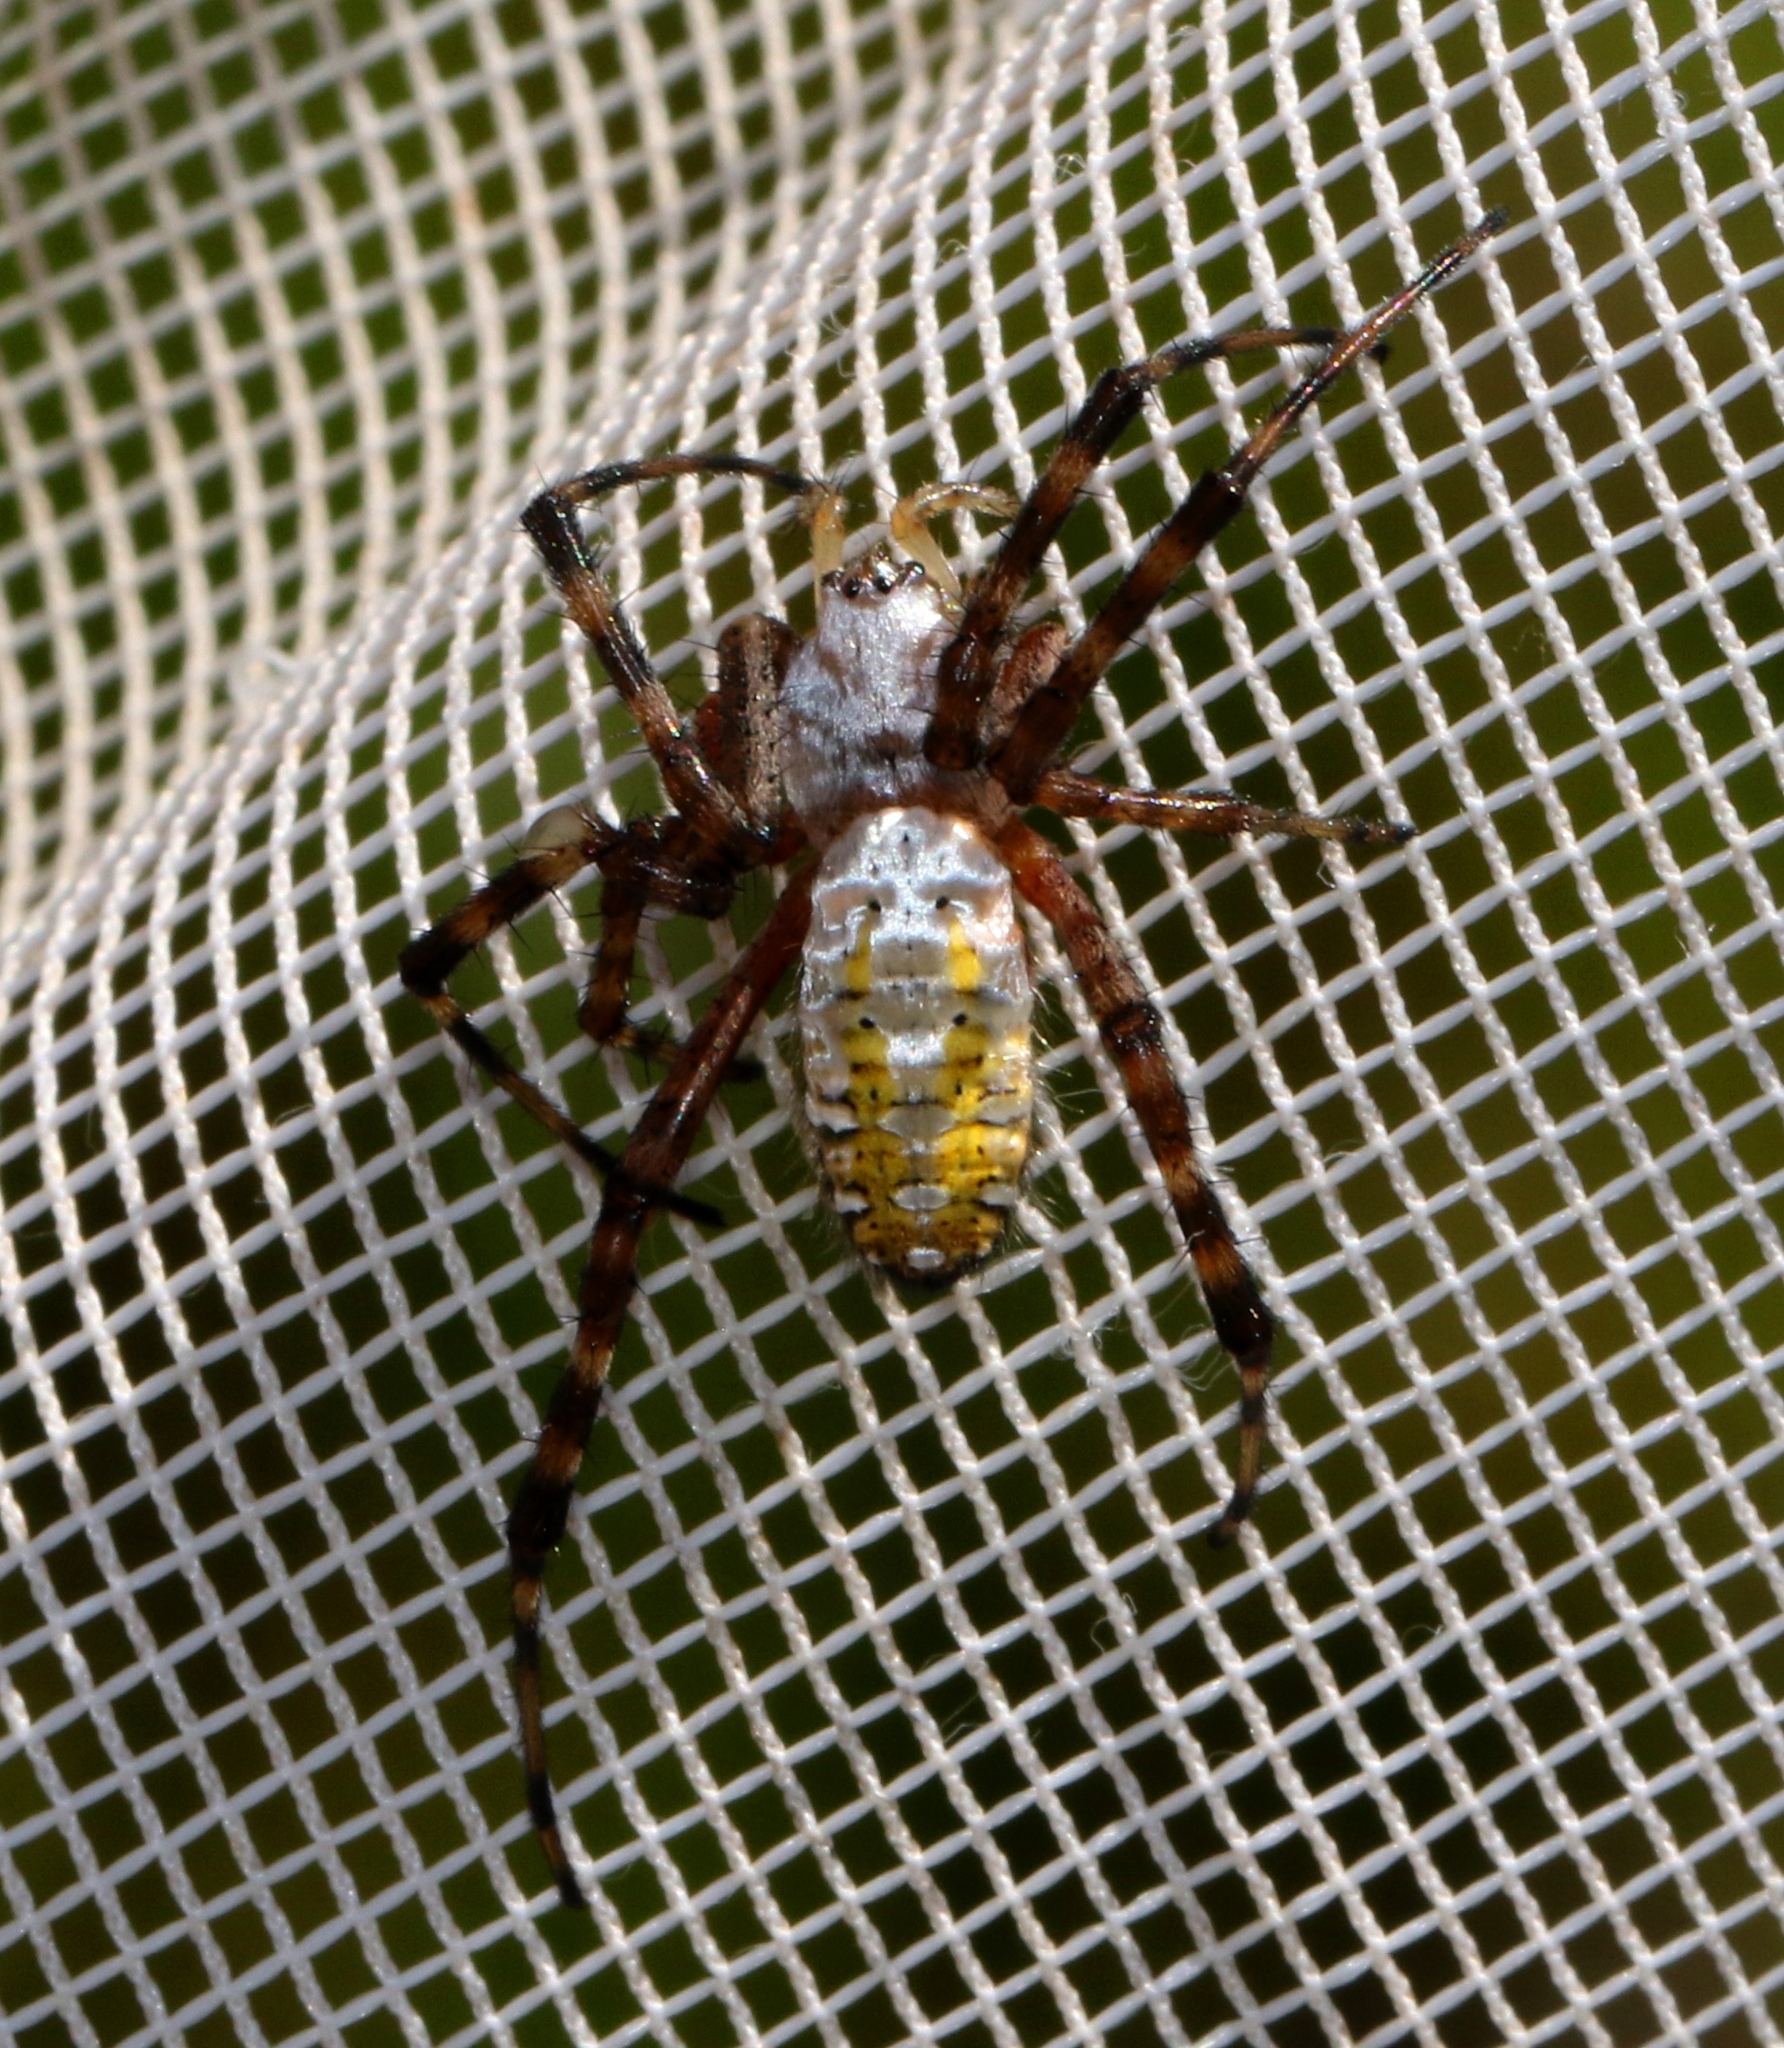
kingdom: Animalia
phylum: Arthropoda
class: Arachnida
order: Araneae
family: Araneidae
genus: Argiope
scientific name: Argiope trifasciata
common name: Banded garden spider
